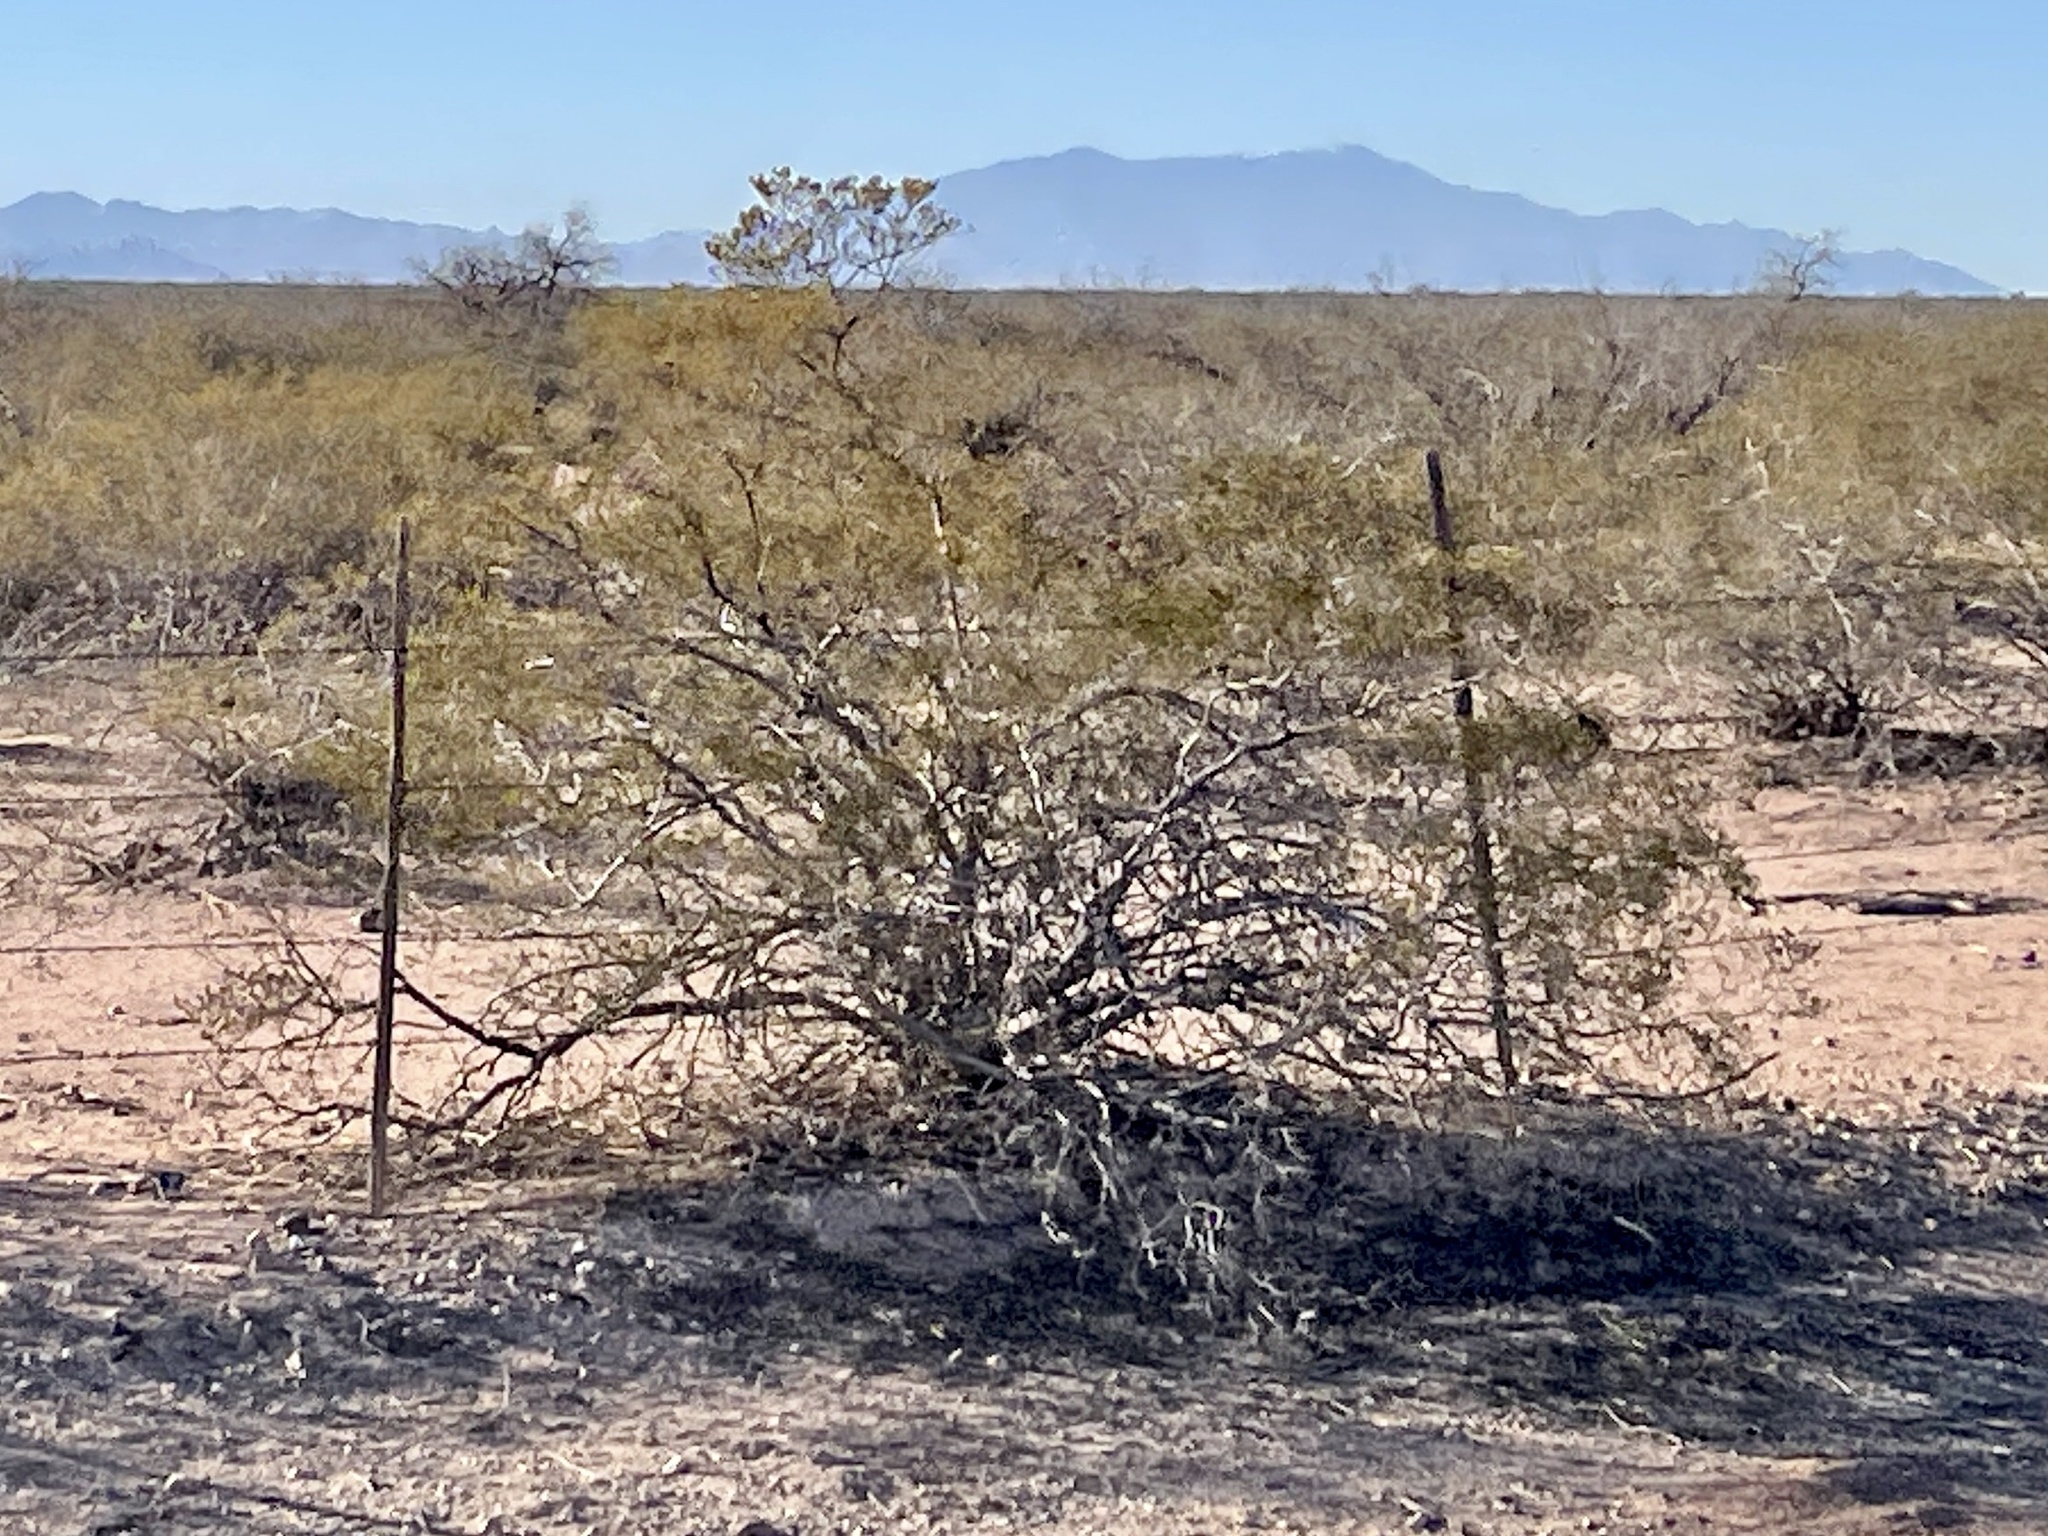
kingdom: Plantae
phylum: Tracheophyta
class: Magnoliopsida
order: Zygophyllales
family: Zygophyllaceae
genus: Larrea
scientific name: Larrea tridentata
